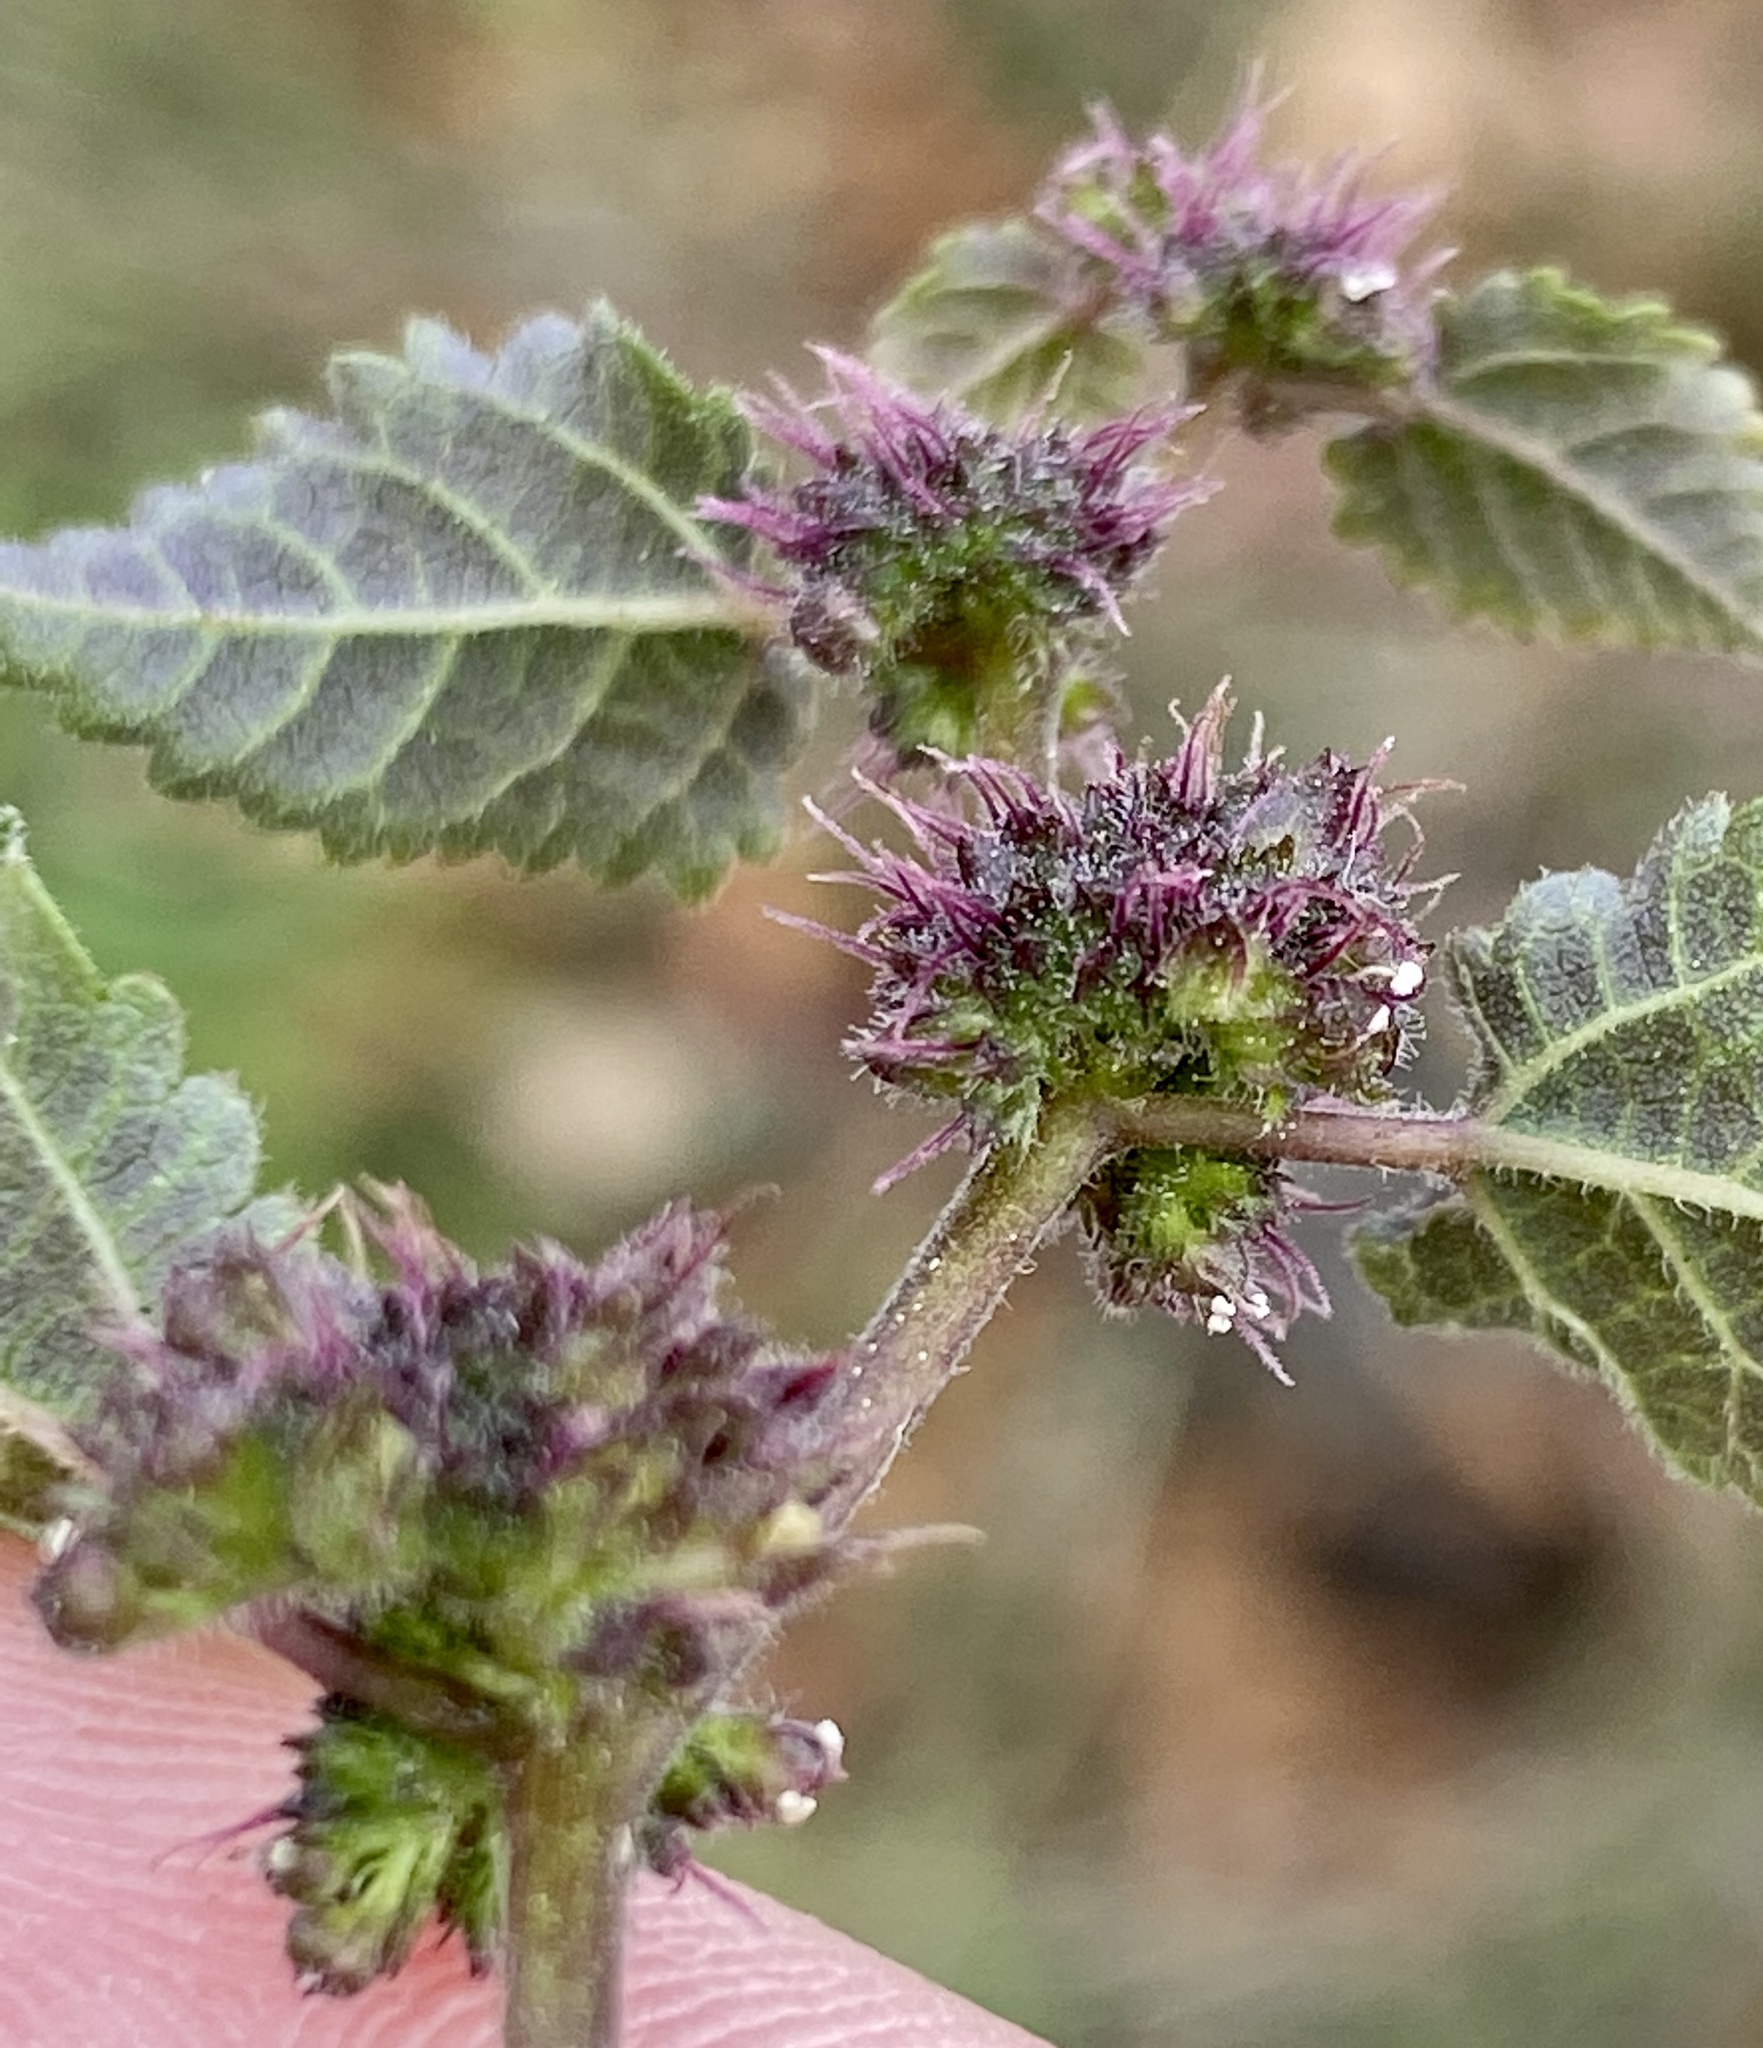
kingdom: Plantae
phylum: Tracheophyta
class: Magnoliopsida
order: Rosales
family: Moraceae
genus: Fatoua
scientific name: Fatoua villosa
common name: Hairy crabweed
